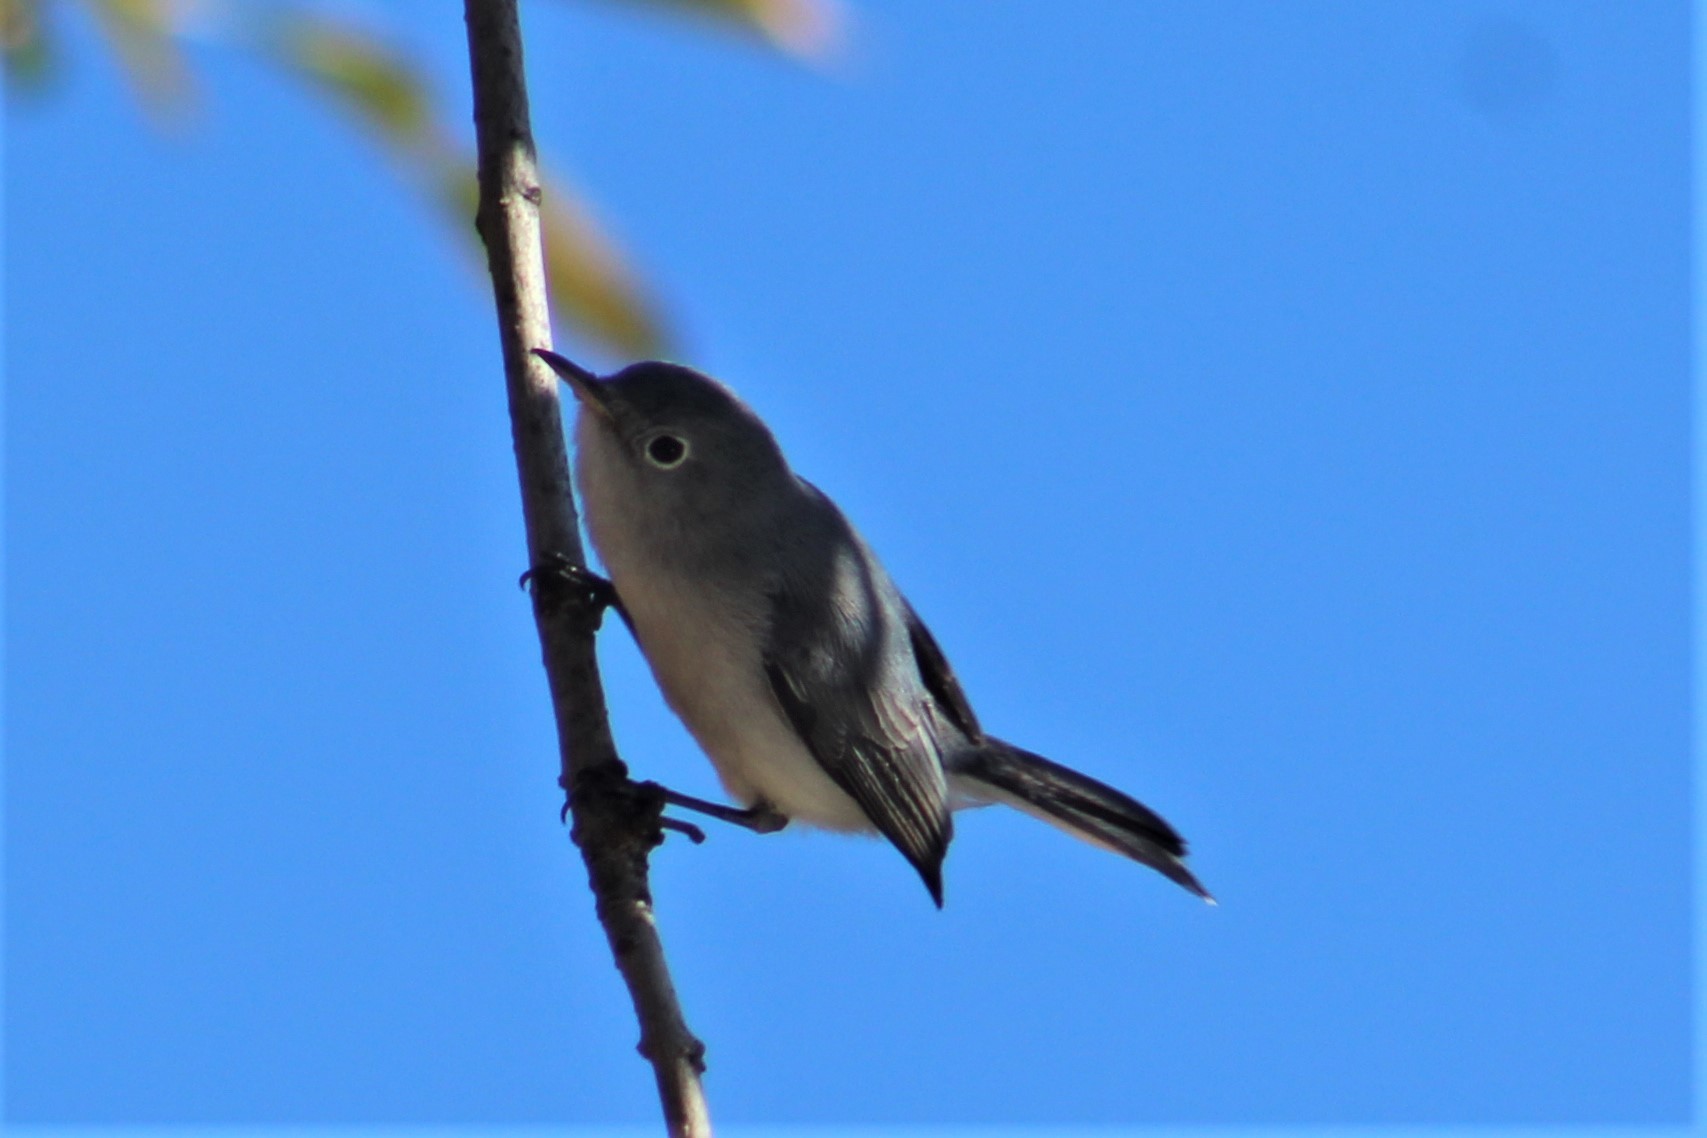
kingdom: Animalia
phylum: Chordata
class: Aves
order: Passeriformes
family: Polioptilidae
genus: Polioptila
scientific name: Polioptila caerulea
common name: Blue-gray gnatcatcher
